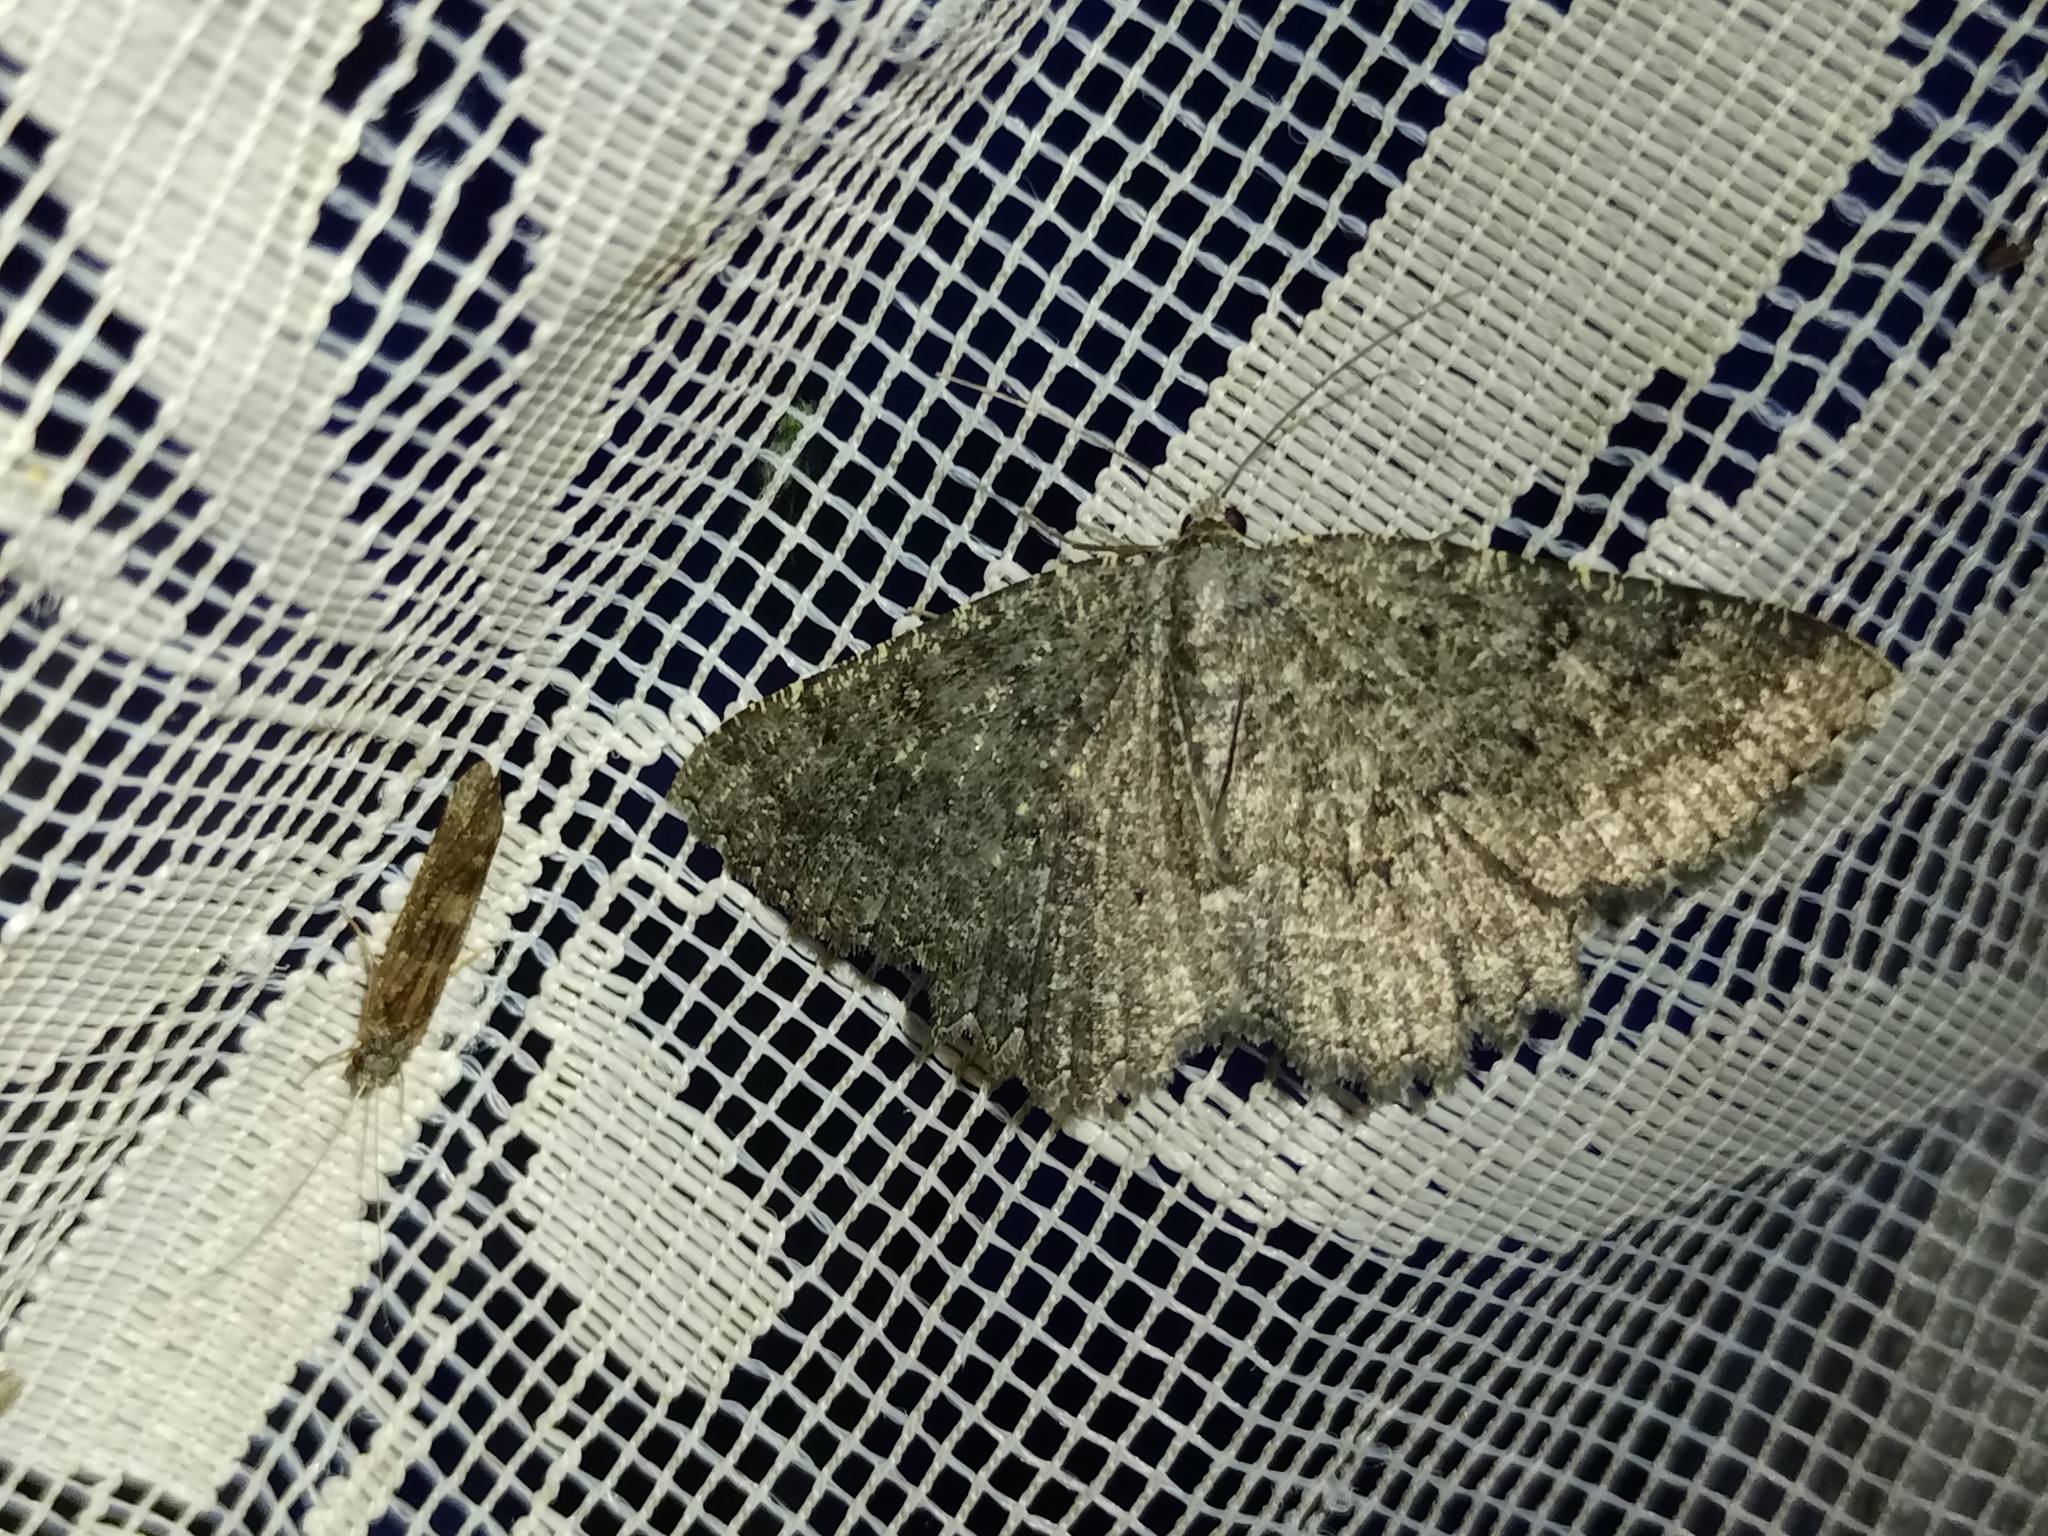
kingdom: Animalia
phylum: Arthropoda
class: Insecta
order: Lepidoptera
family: Geometridae
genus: Charissa
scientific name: Charissa obscurata
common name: Annulet
